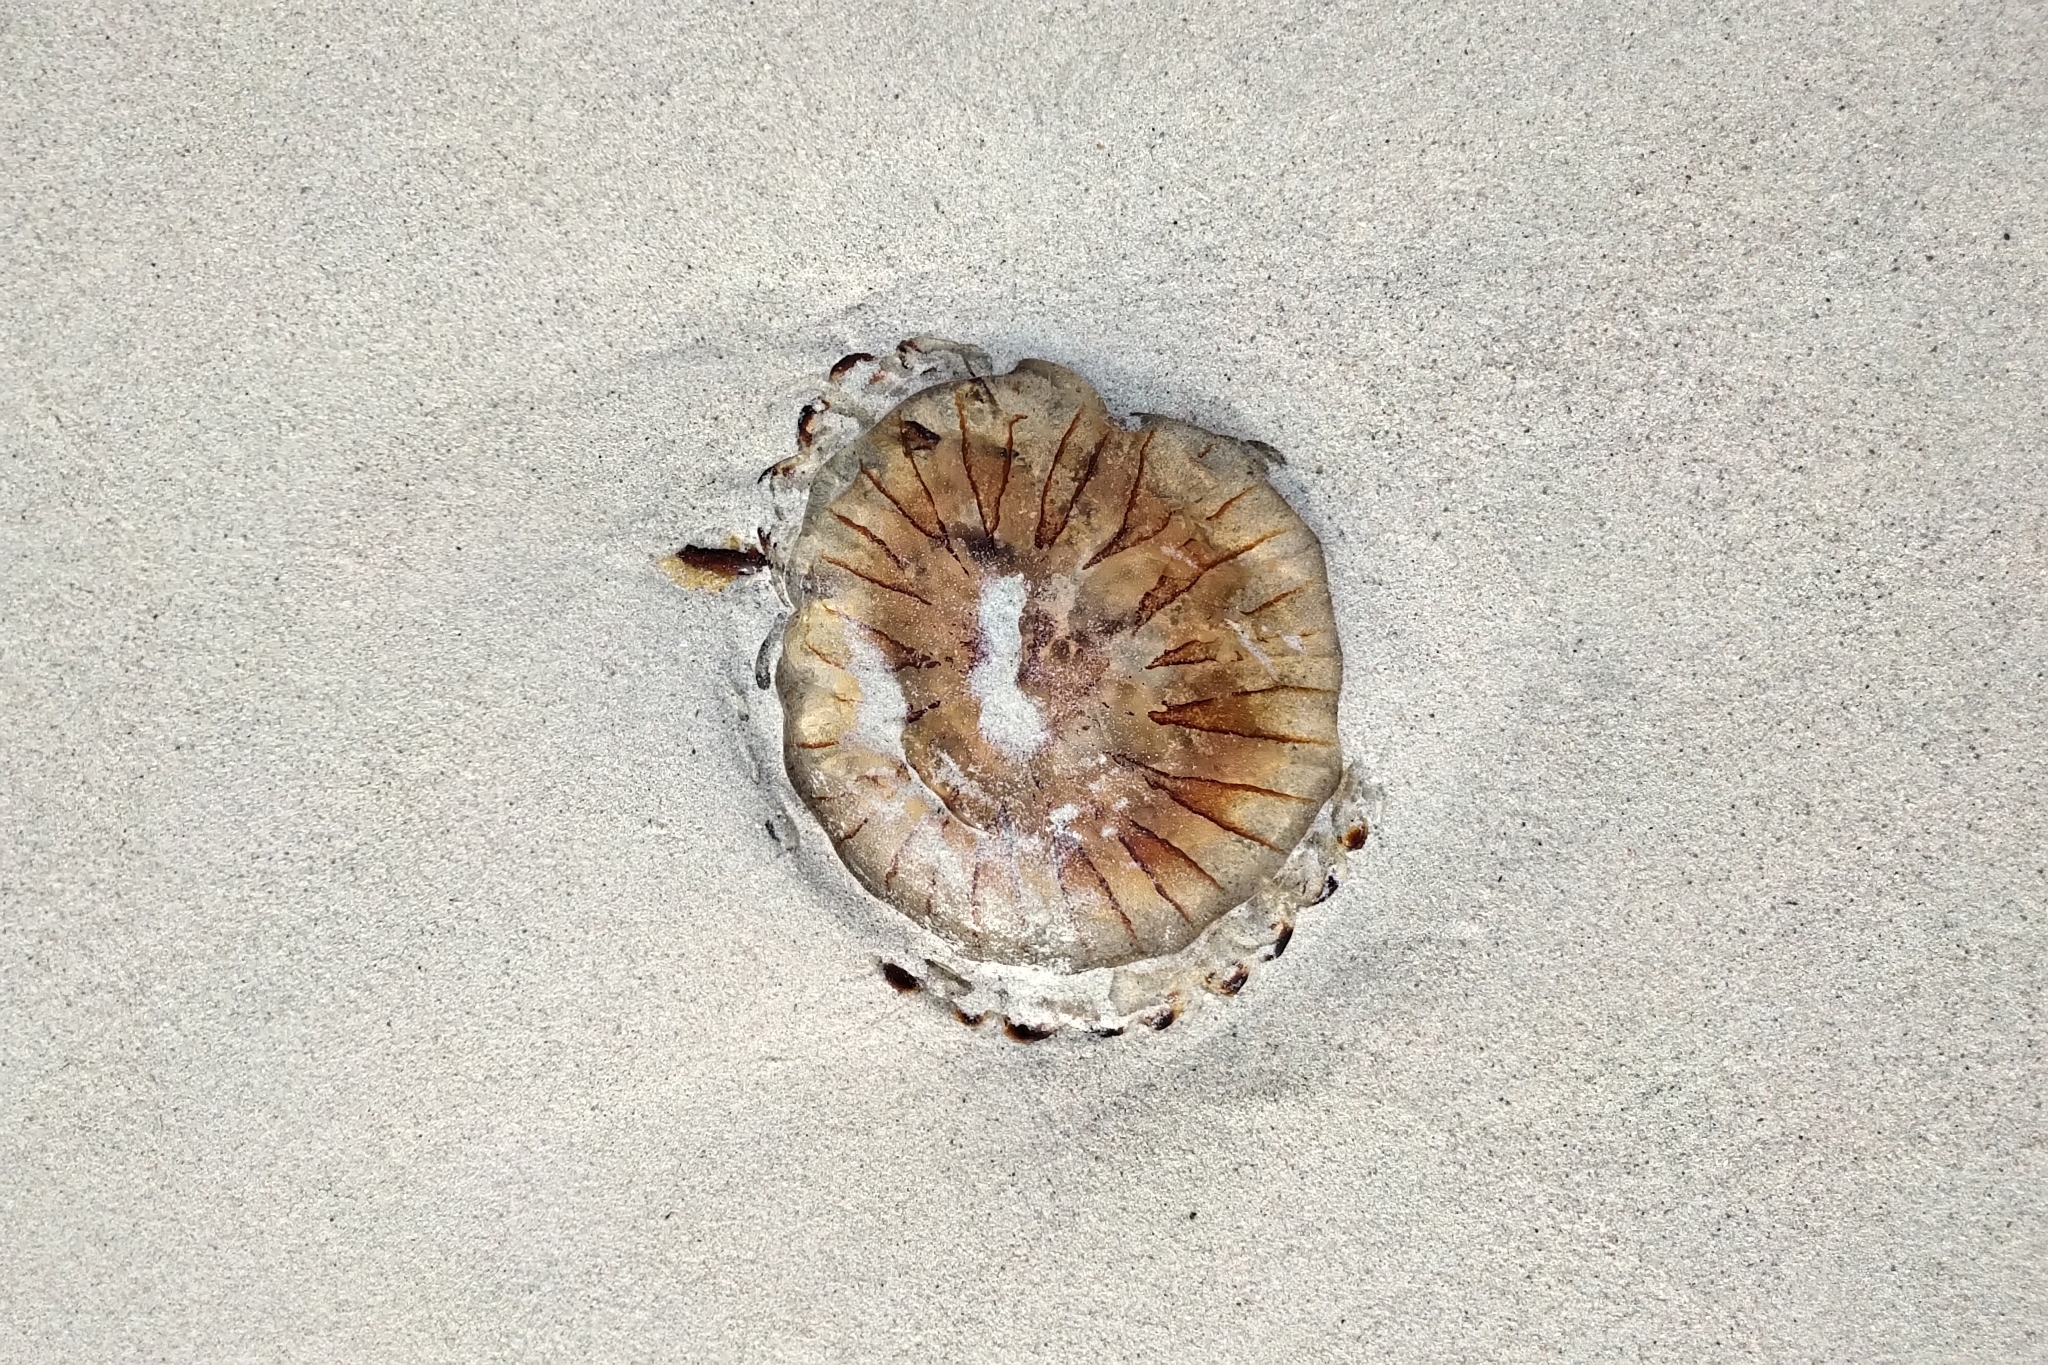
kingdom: Animalia
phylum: Cnidaria
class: Scyphozoa
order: Semaeostomeae
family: Pelagiidae
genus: Chrysaora
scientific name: Chrysaora hysoscella
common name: Compass jellyfish
